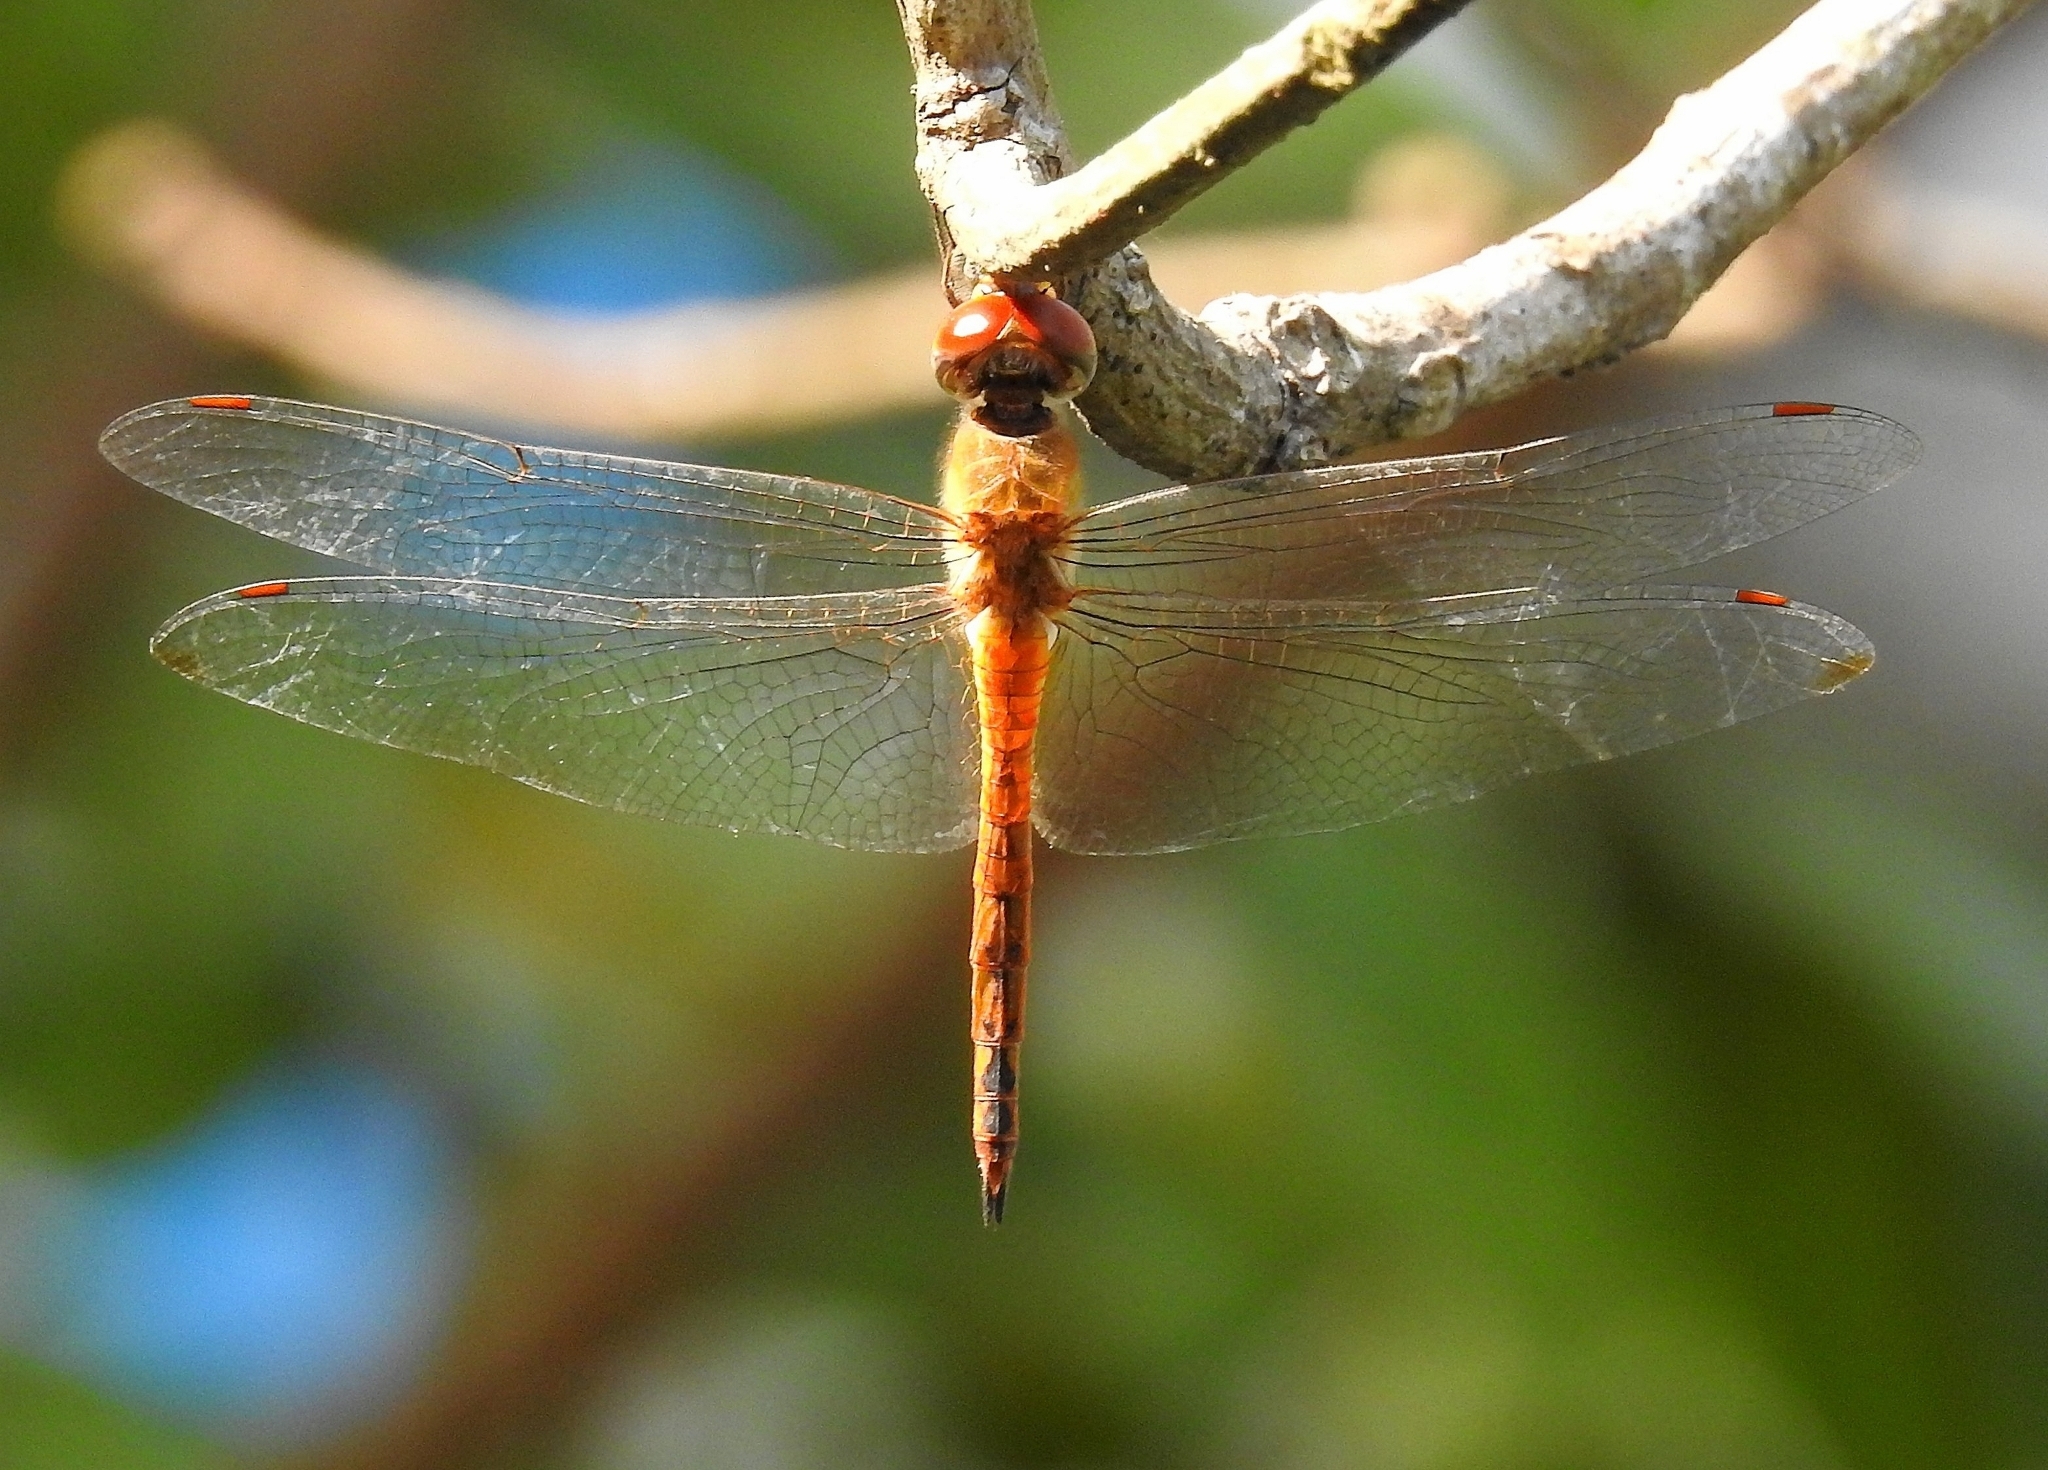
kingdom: Animalia
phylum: Arthropoda
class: Insecta
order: Odonata
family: Libellulidae
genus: Pantala
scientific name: Pantala flavescens
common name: Wandering glider
